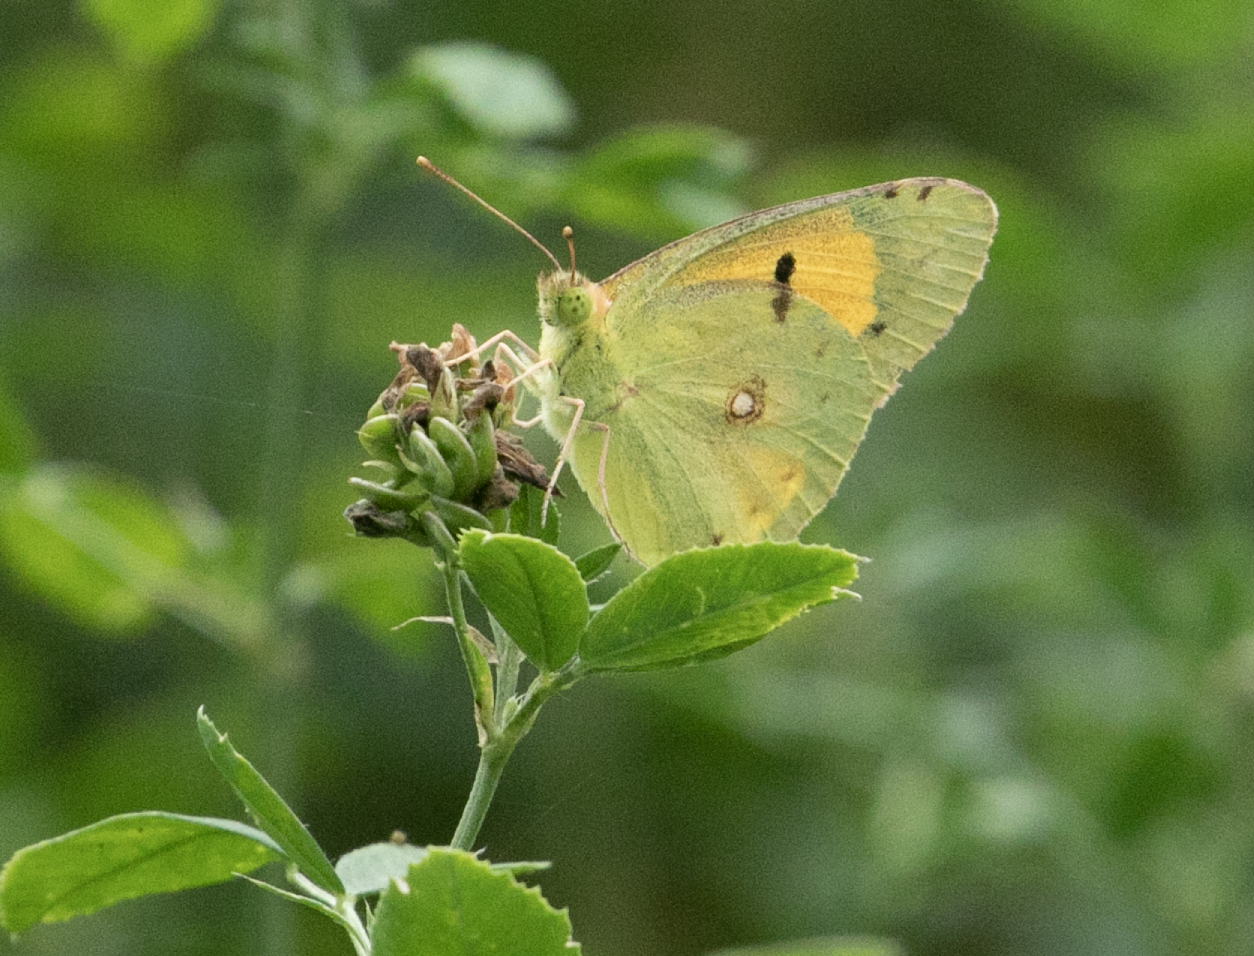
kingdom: Animalia
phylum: Arthropoda
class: Insecta
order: Lepidoptera
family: Pieridae
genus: Colias
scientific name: Colias croceus
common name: Clouded yellow
